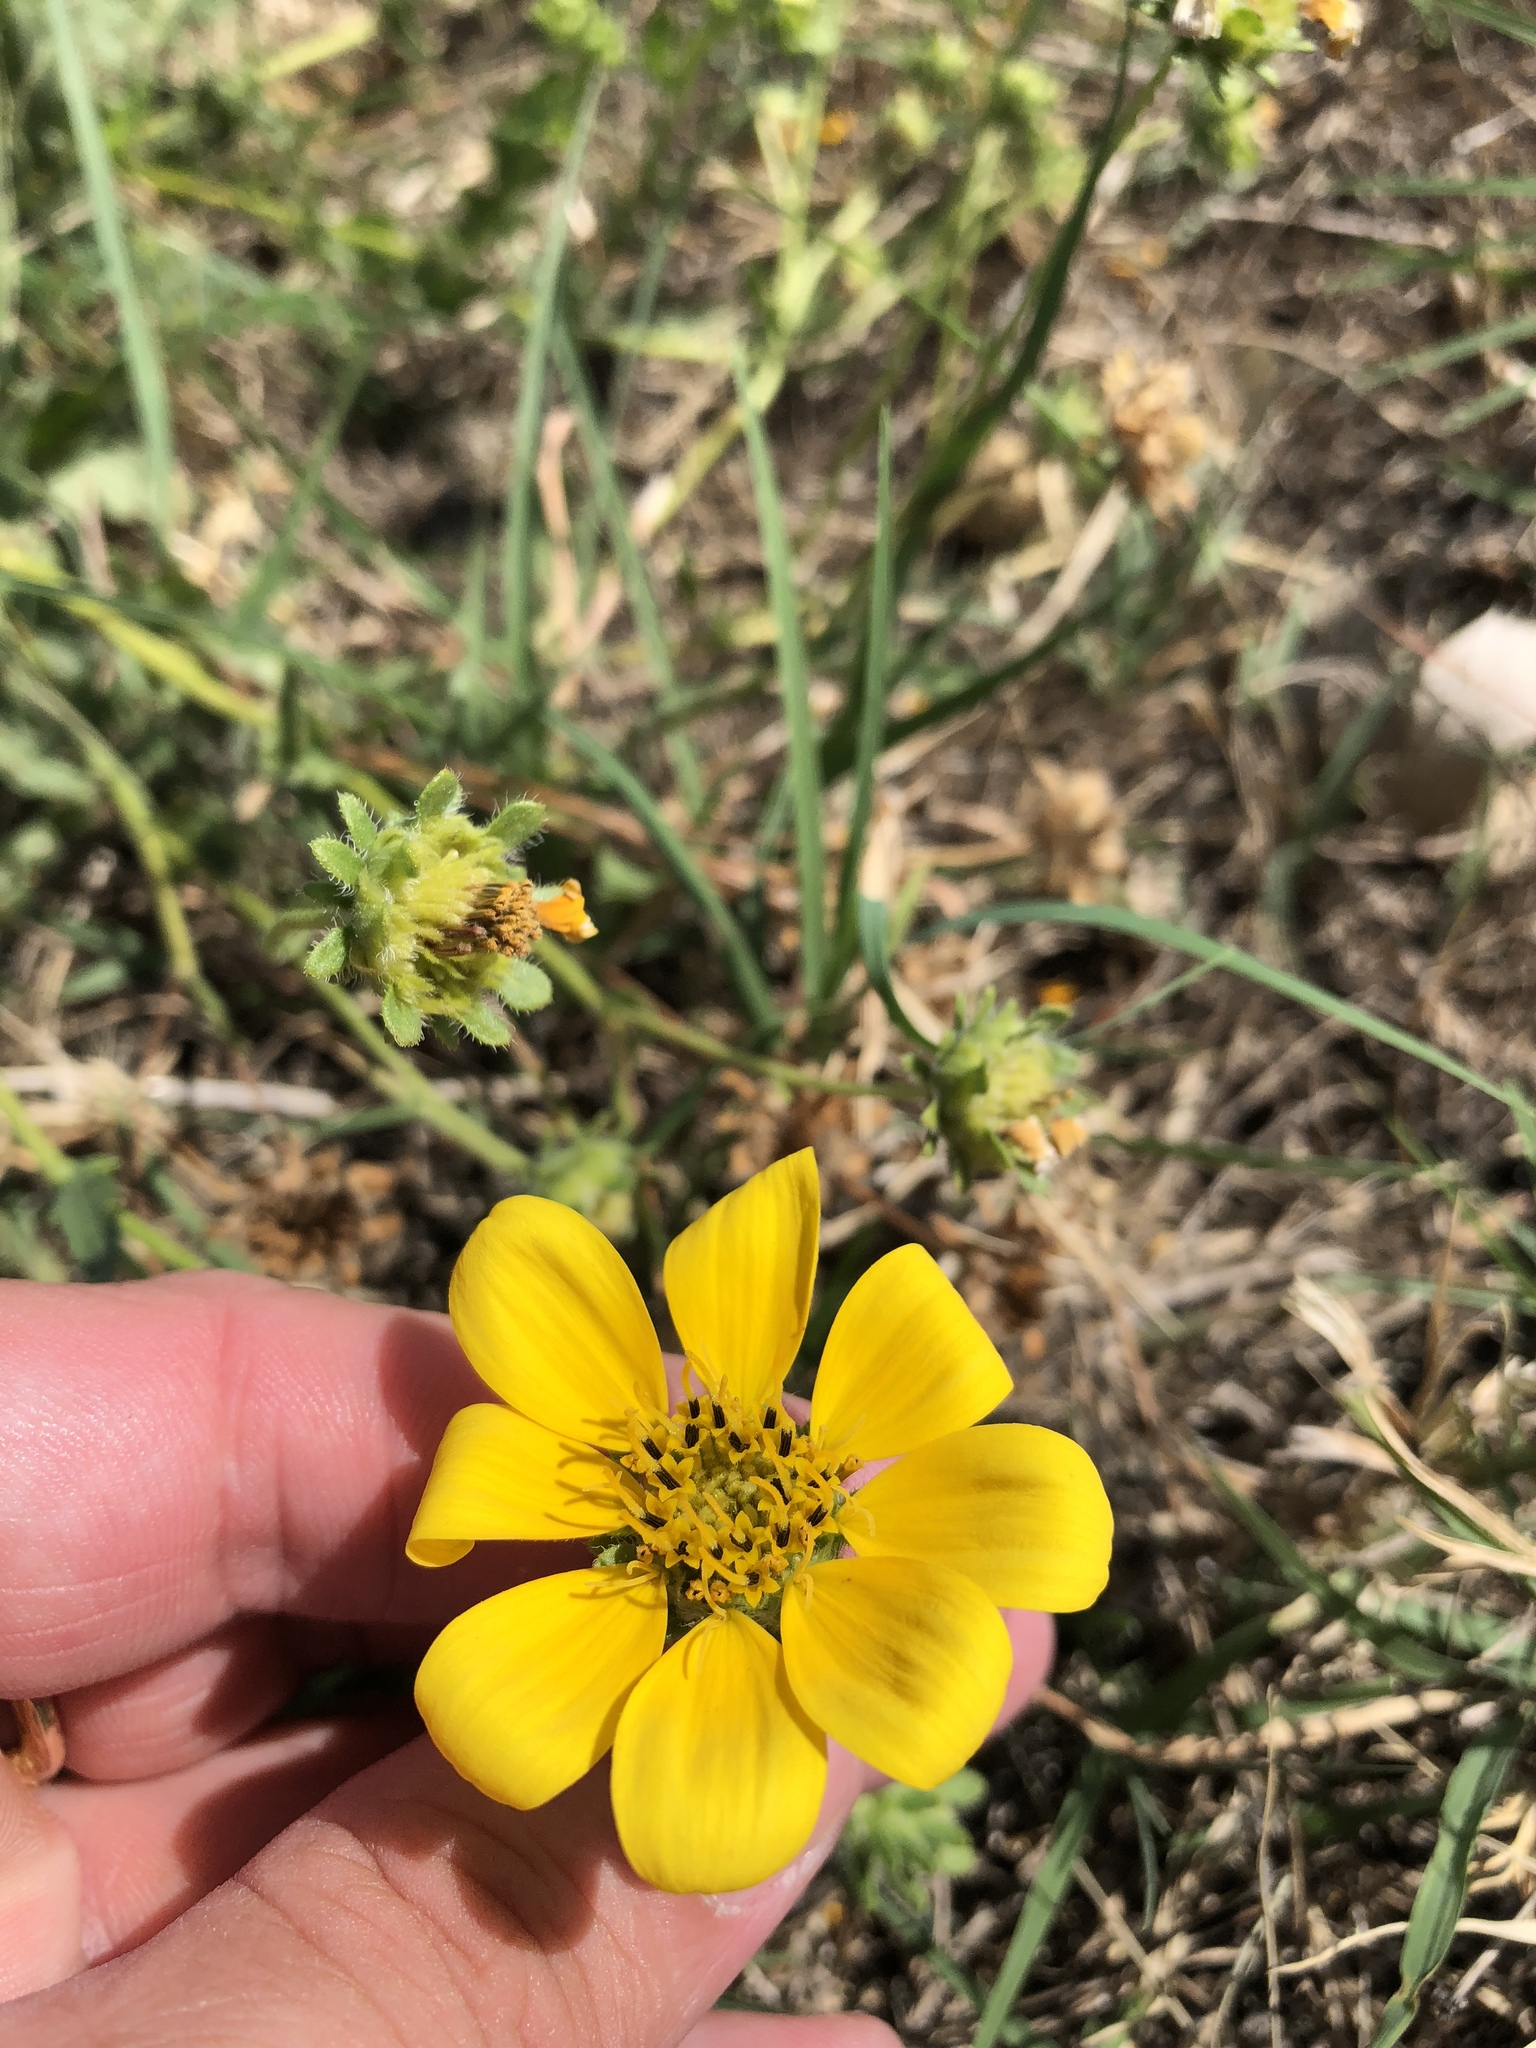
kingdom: Plantae
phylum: Tracheophyta
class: Magnoliopsida
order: Asterales
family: Asteraceae
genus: Engelmannia
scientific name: Engelmannia peristenia
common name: Engelmann's daisy
